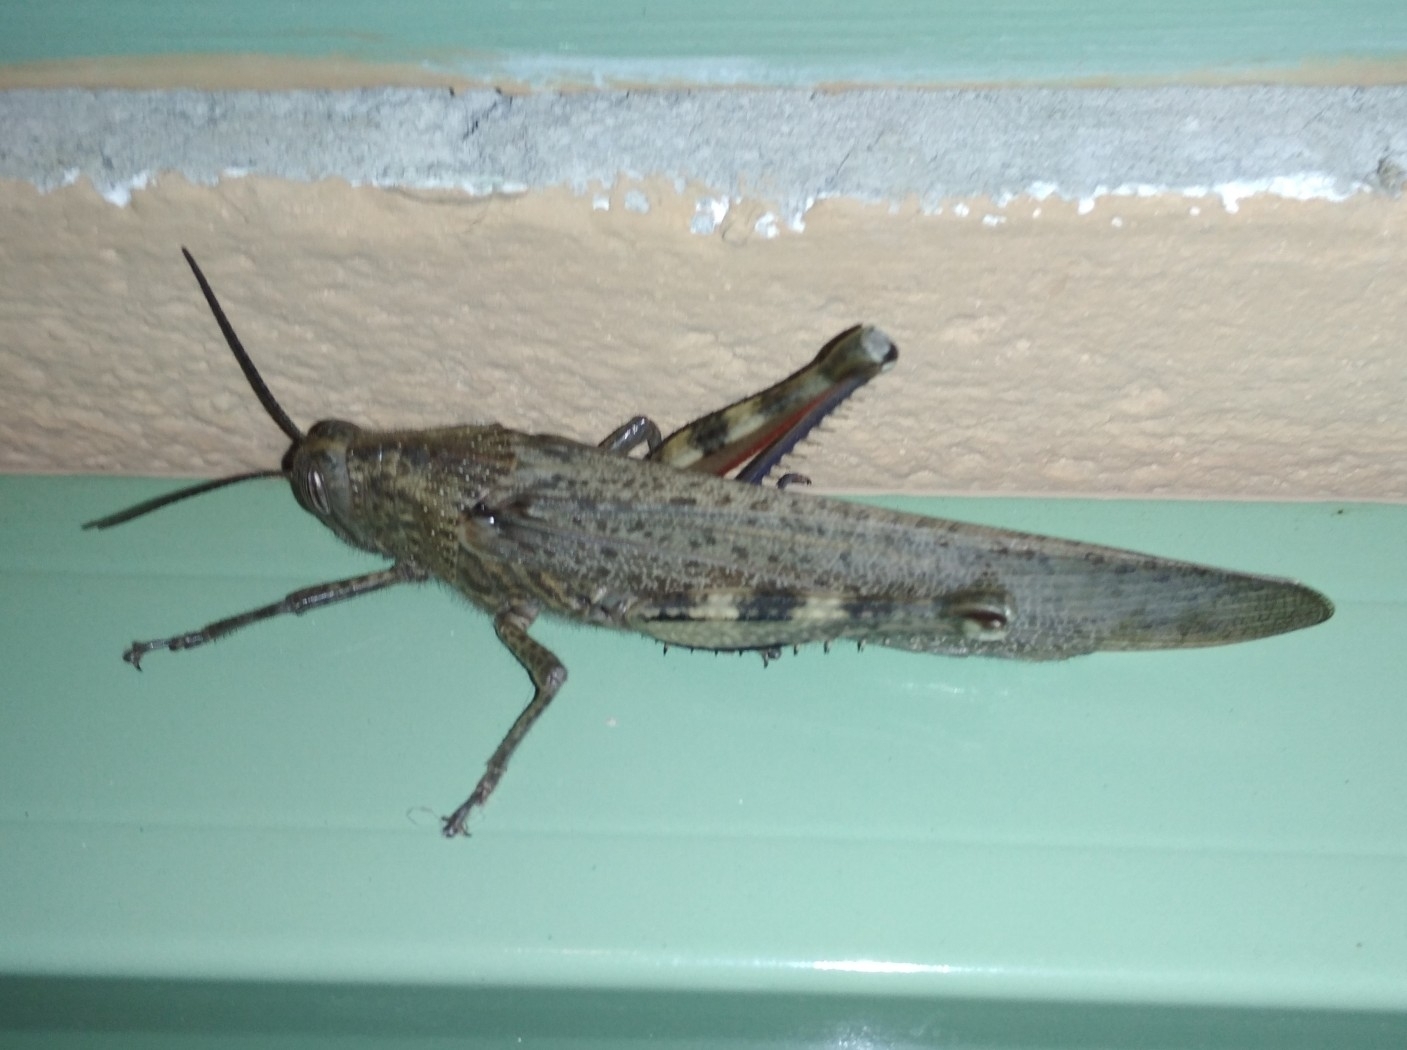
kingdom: Animalia
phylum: Arthropoda
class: Insecta
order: Orthoptera
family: Acrididae
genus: Anacridium
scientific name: Anacridium aegyptium
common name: Egyptian grasshopper
